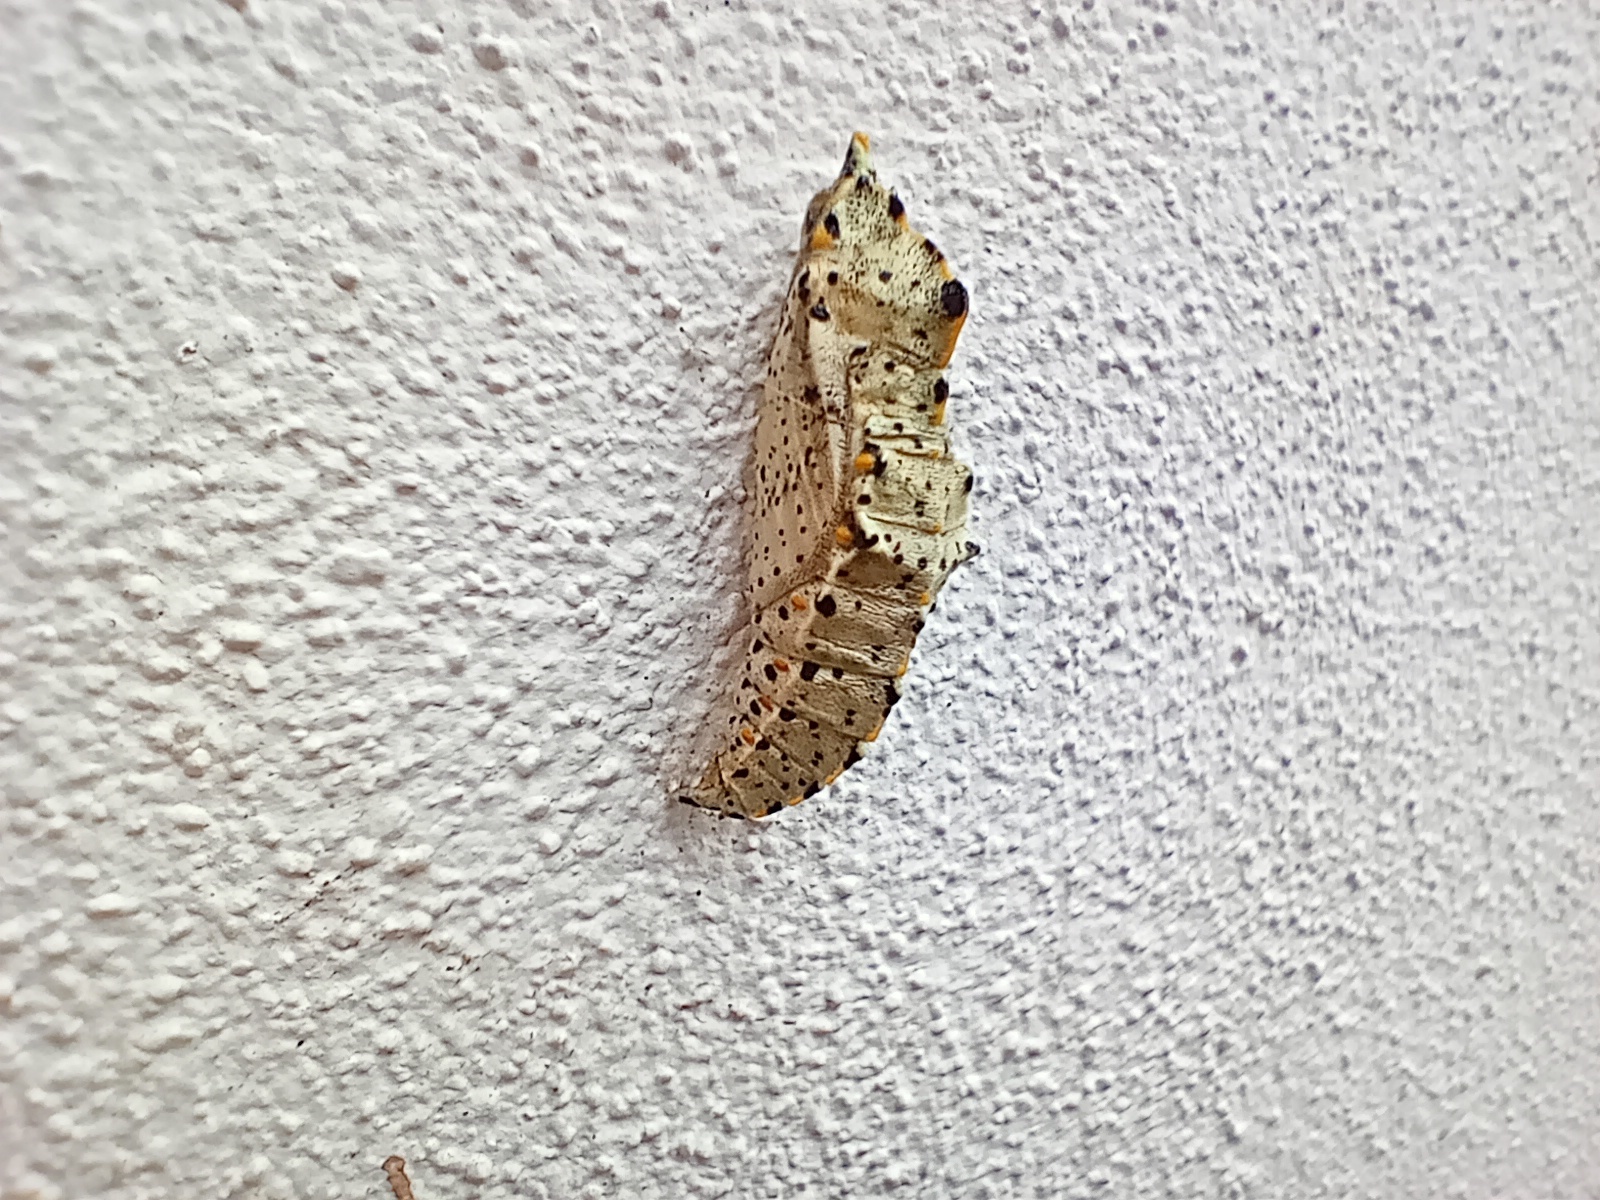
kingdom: Animalia
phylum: Arthropoda
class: Insecta
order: Lepidoptera
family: Pieridae
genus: Pieris
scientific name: Pieris brassicae
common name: Large white
